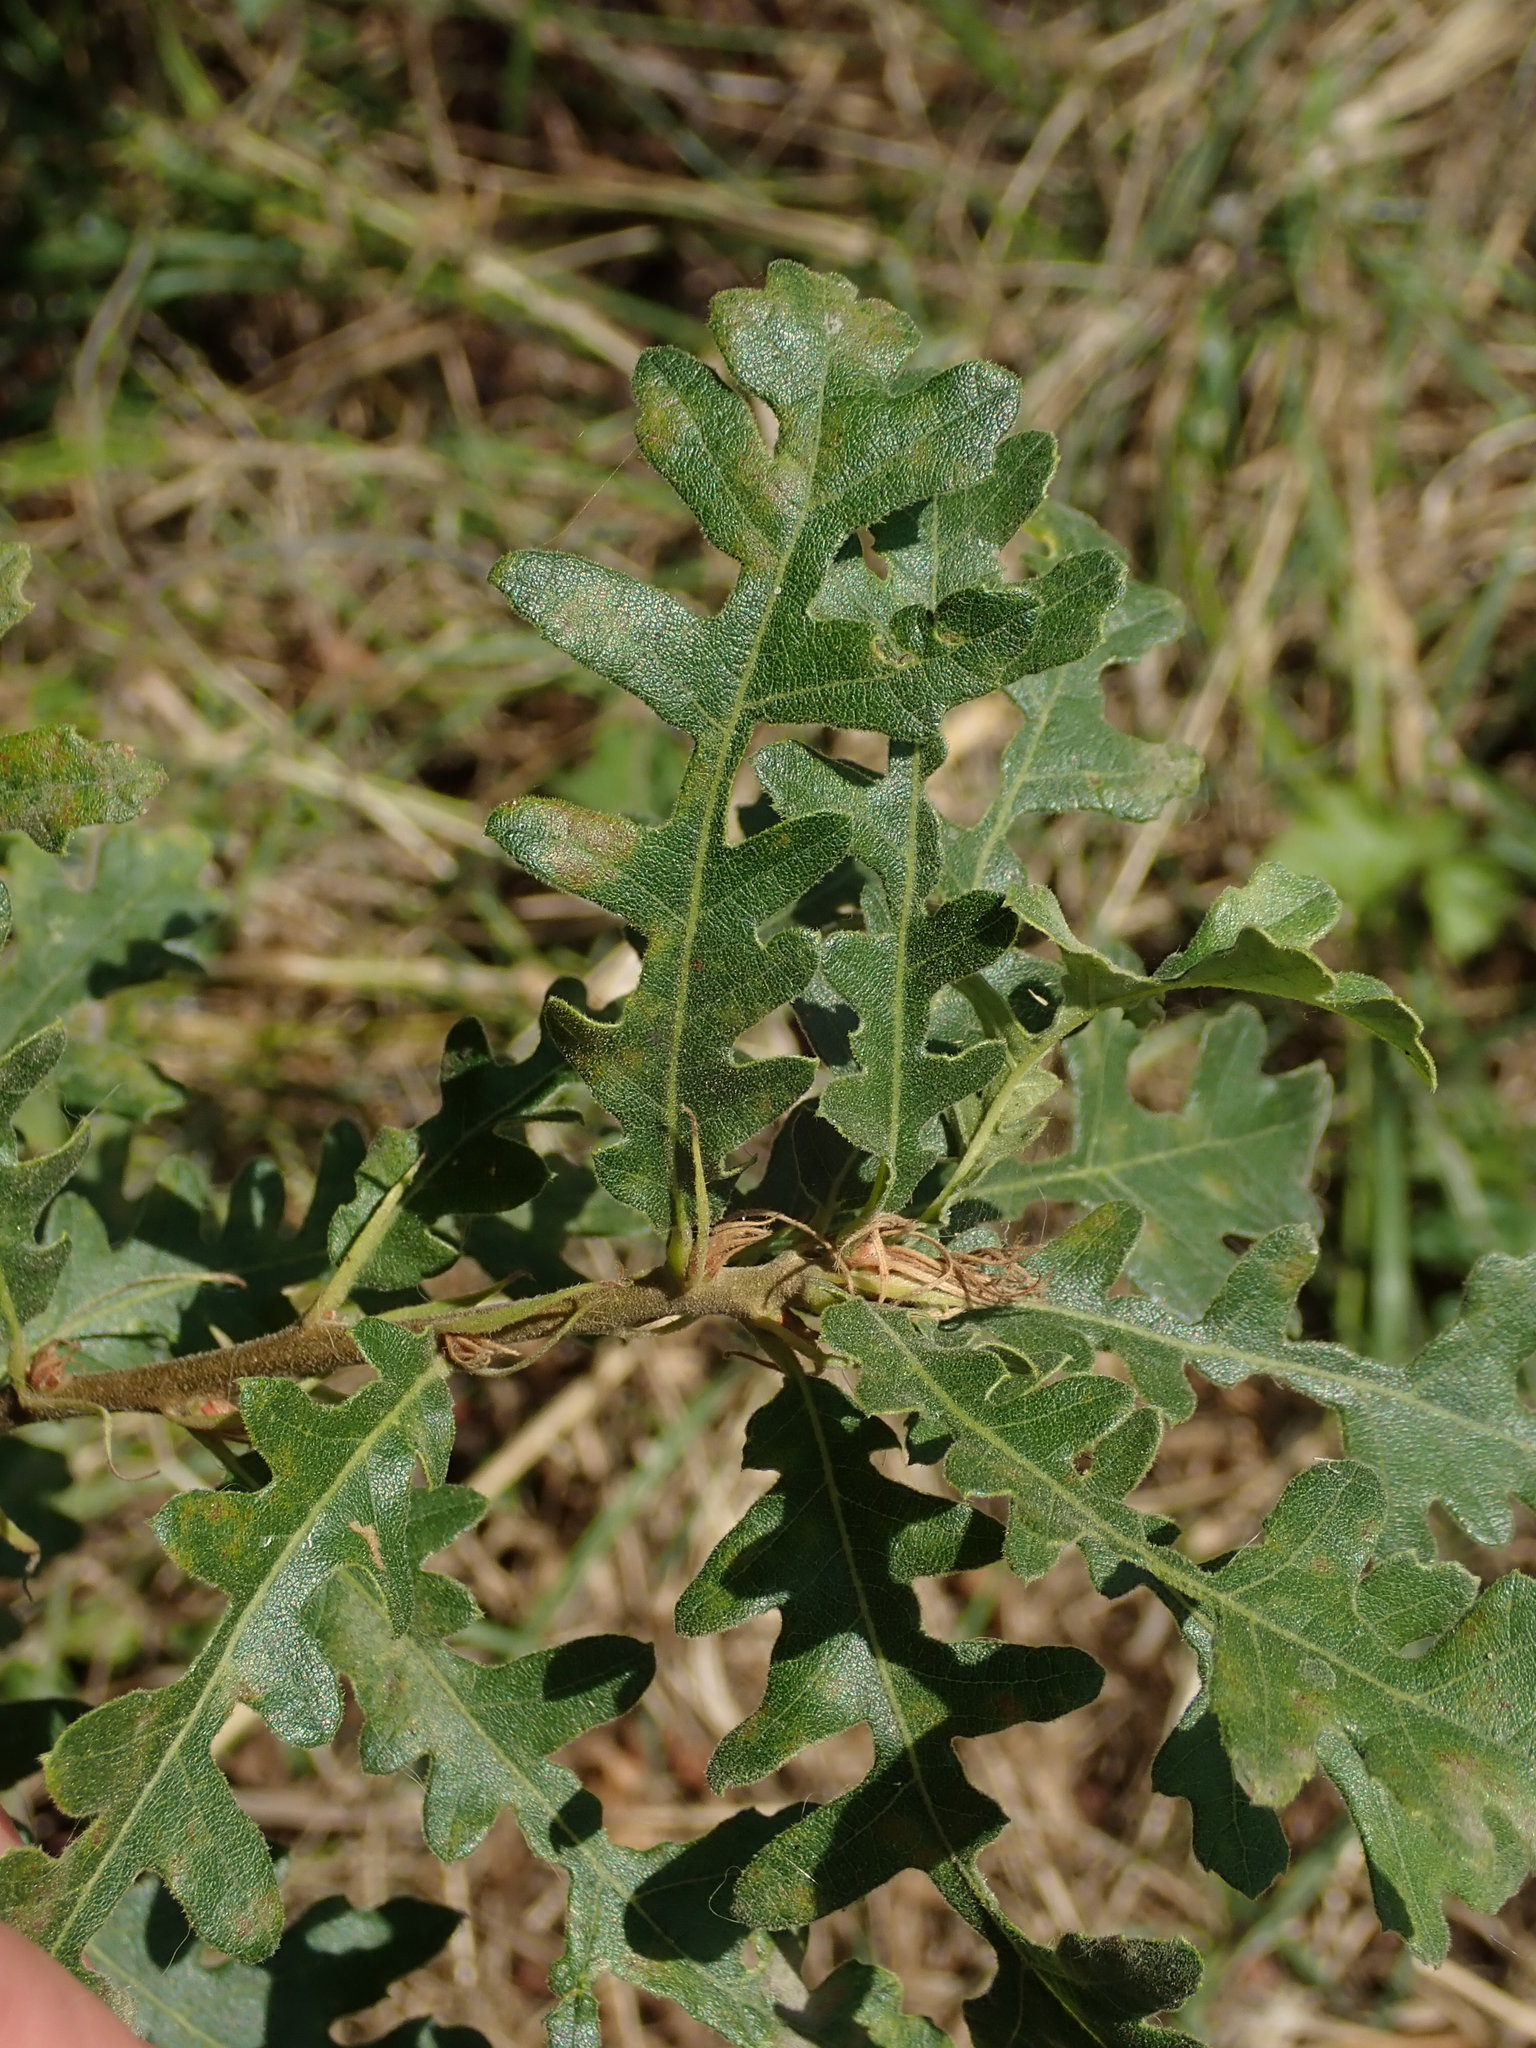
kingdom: Plantae
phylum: Tracheophyta
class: Magnoliopsida
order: Fagales
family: Fagaceae
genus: Quercus
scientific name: Quercus cerris
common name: Turkey oak
